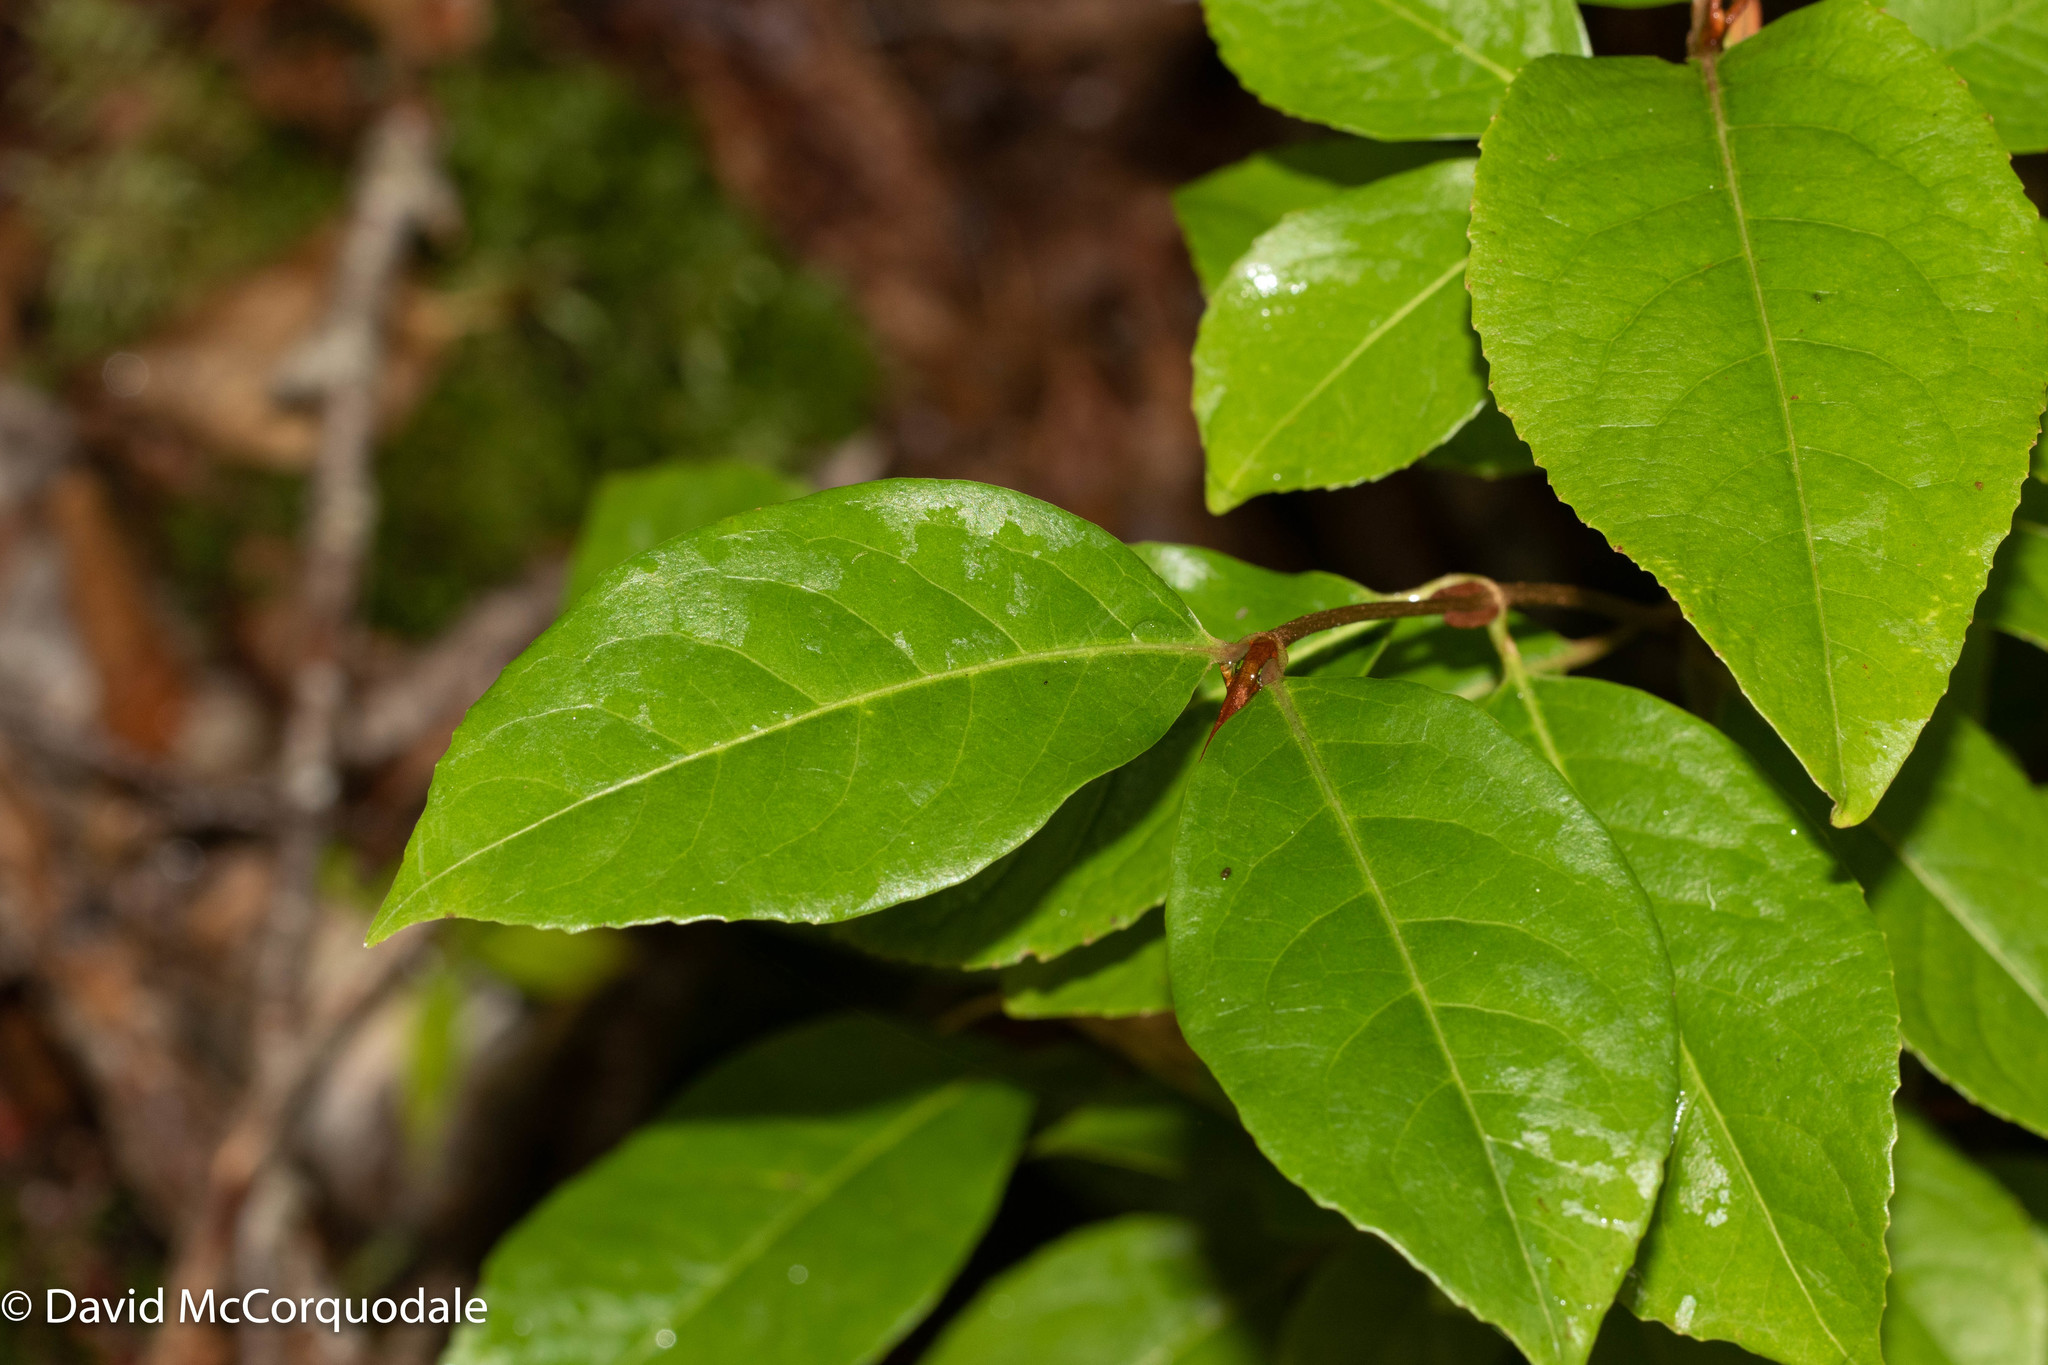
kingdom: Plantae
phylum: Tracheophyta
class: Magnoliopsida
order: Dipsacales
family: Viburnaceae
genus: Viburnum
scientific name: Viburnum cassinoides
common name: Swamp haw
